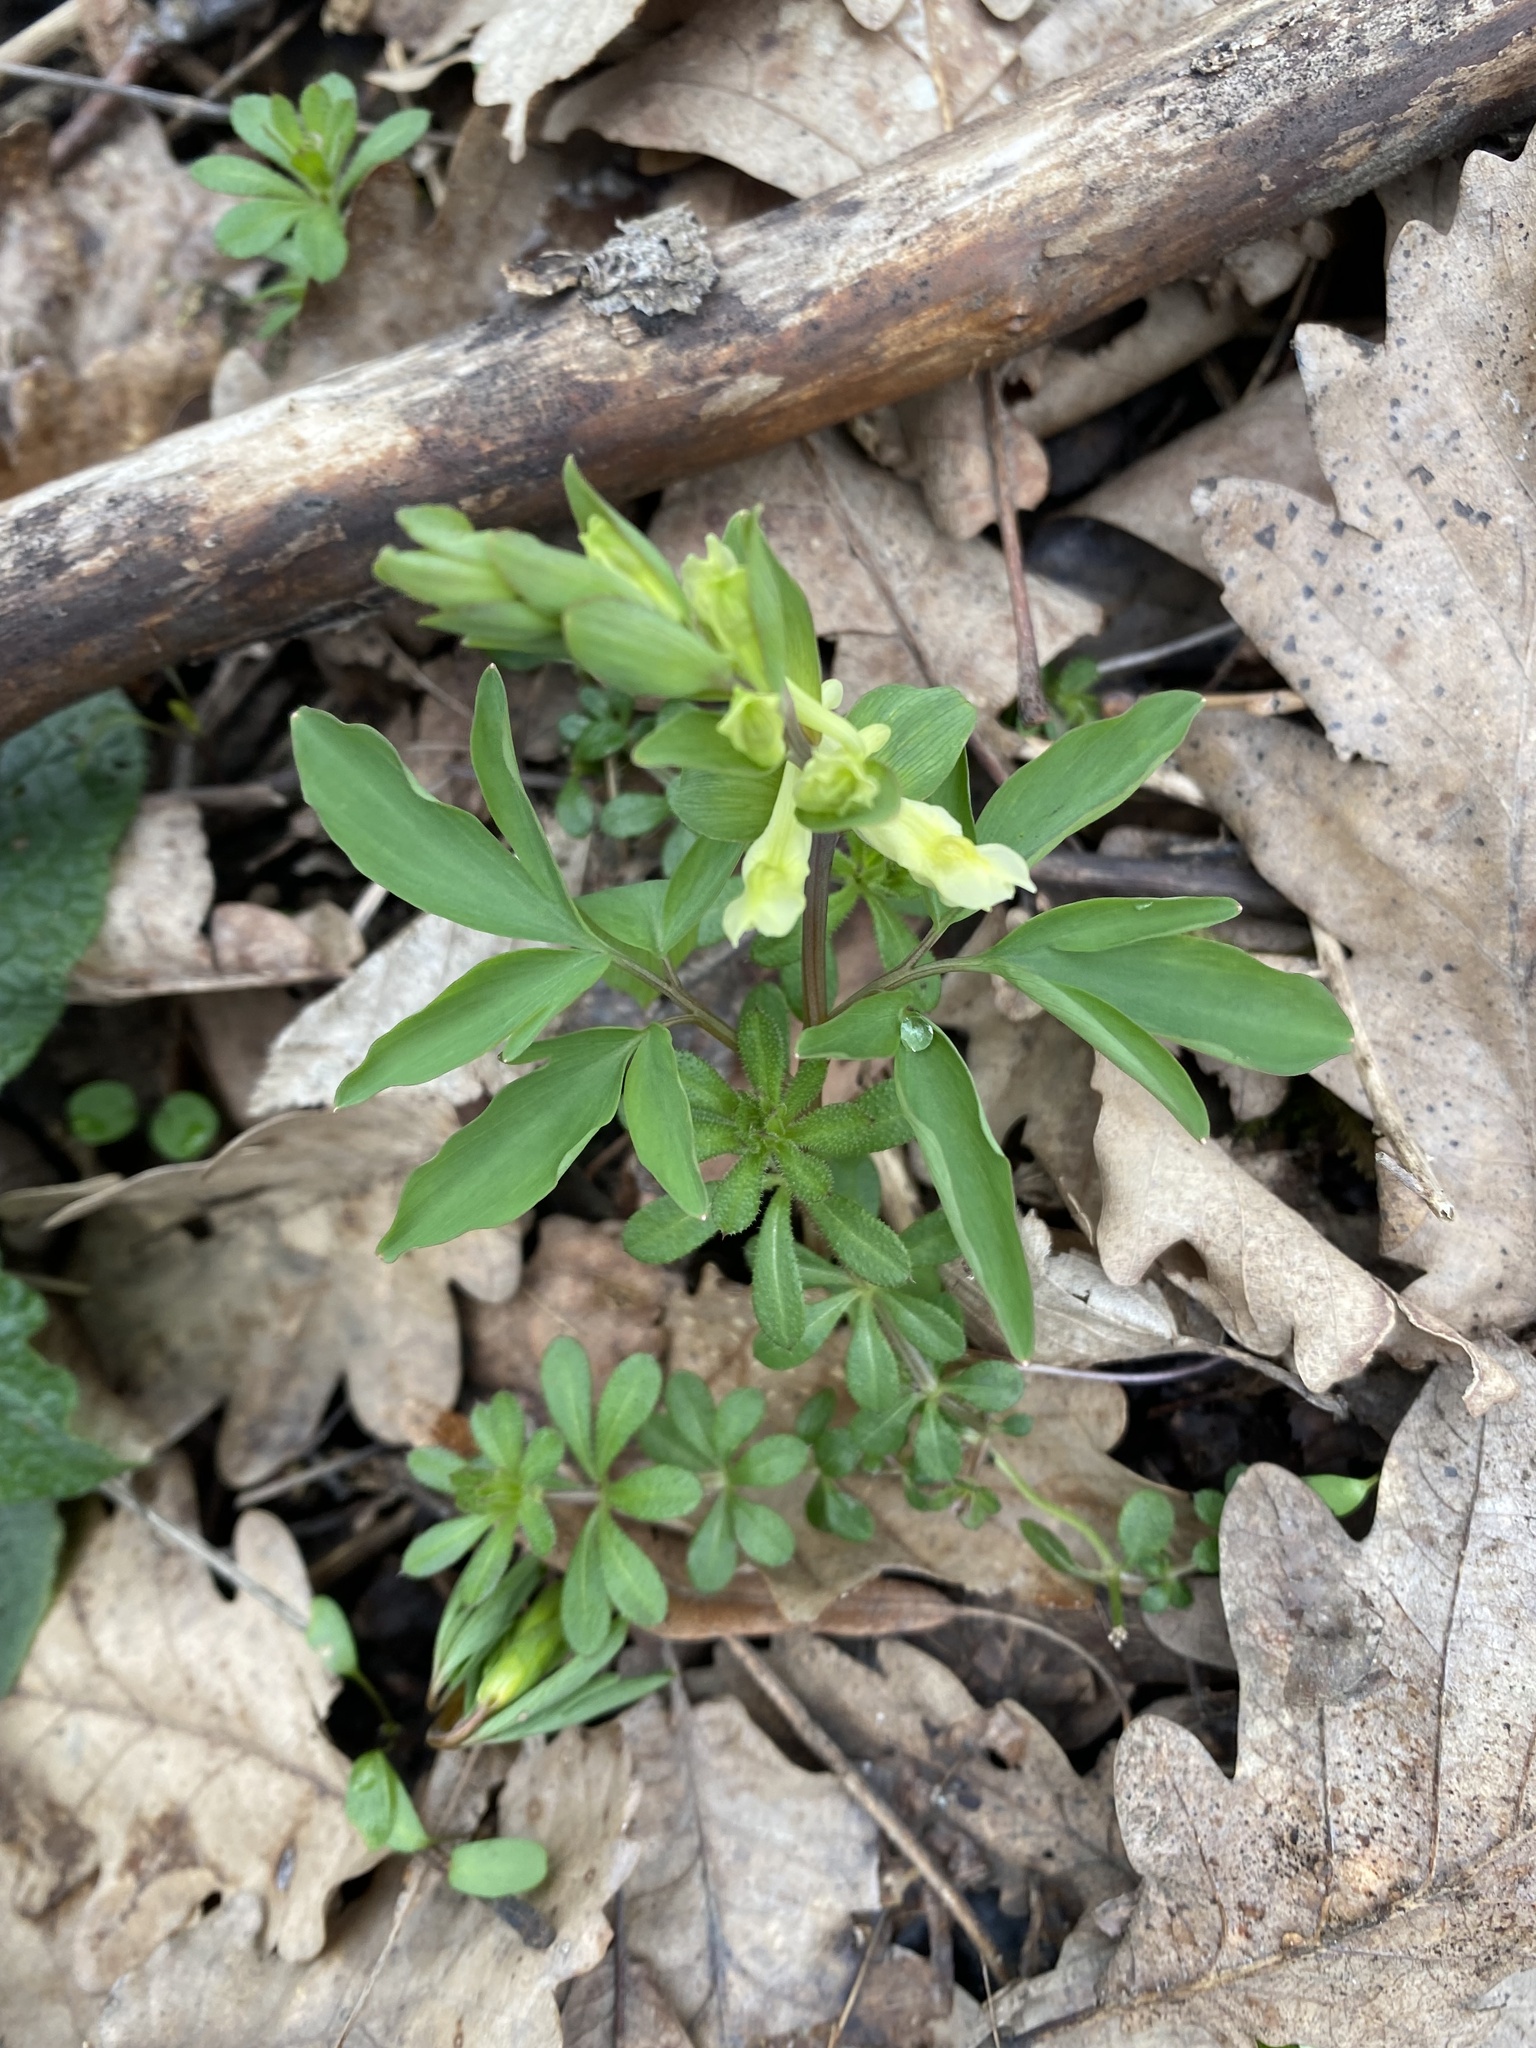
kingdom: Plantae
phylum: Tracheophyta
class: Magnoliopsida
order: Ranunculales
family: Papaveraceae
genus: Corydalis
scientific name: Corydalis cava
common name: Hollowroot
